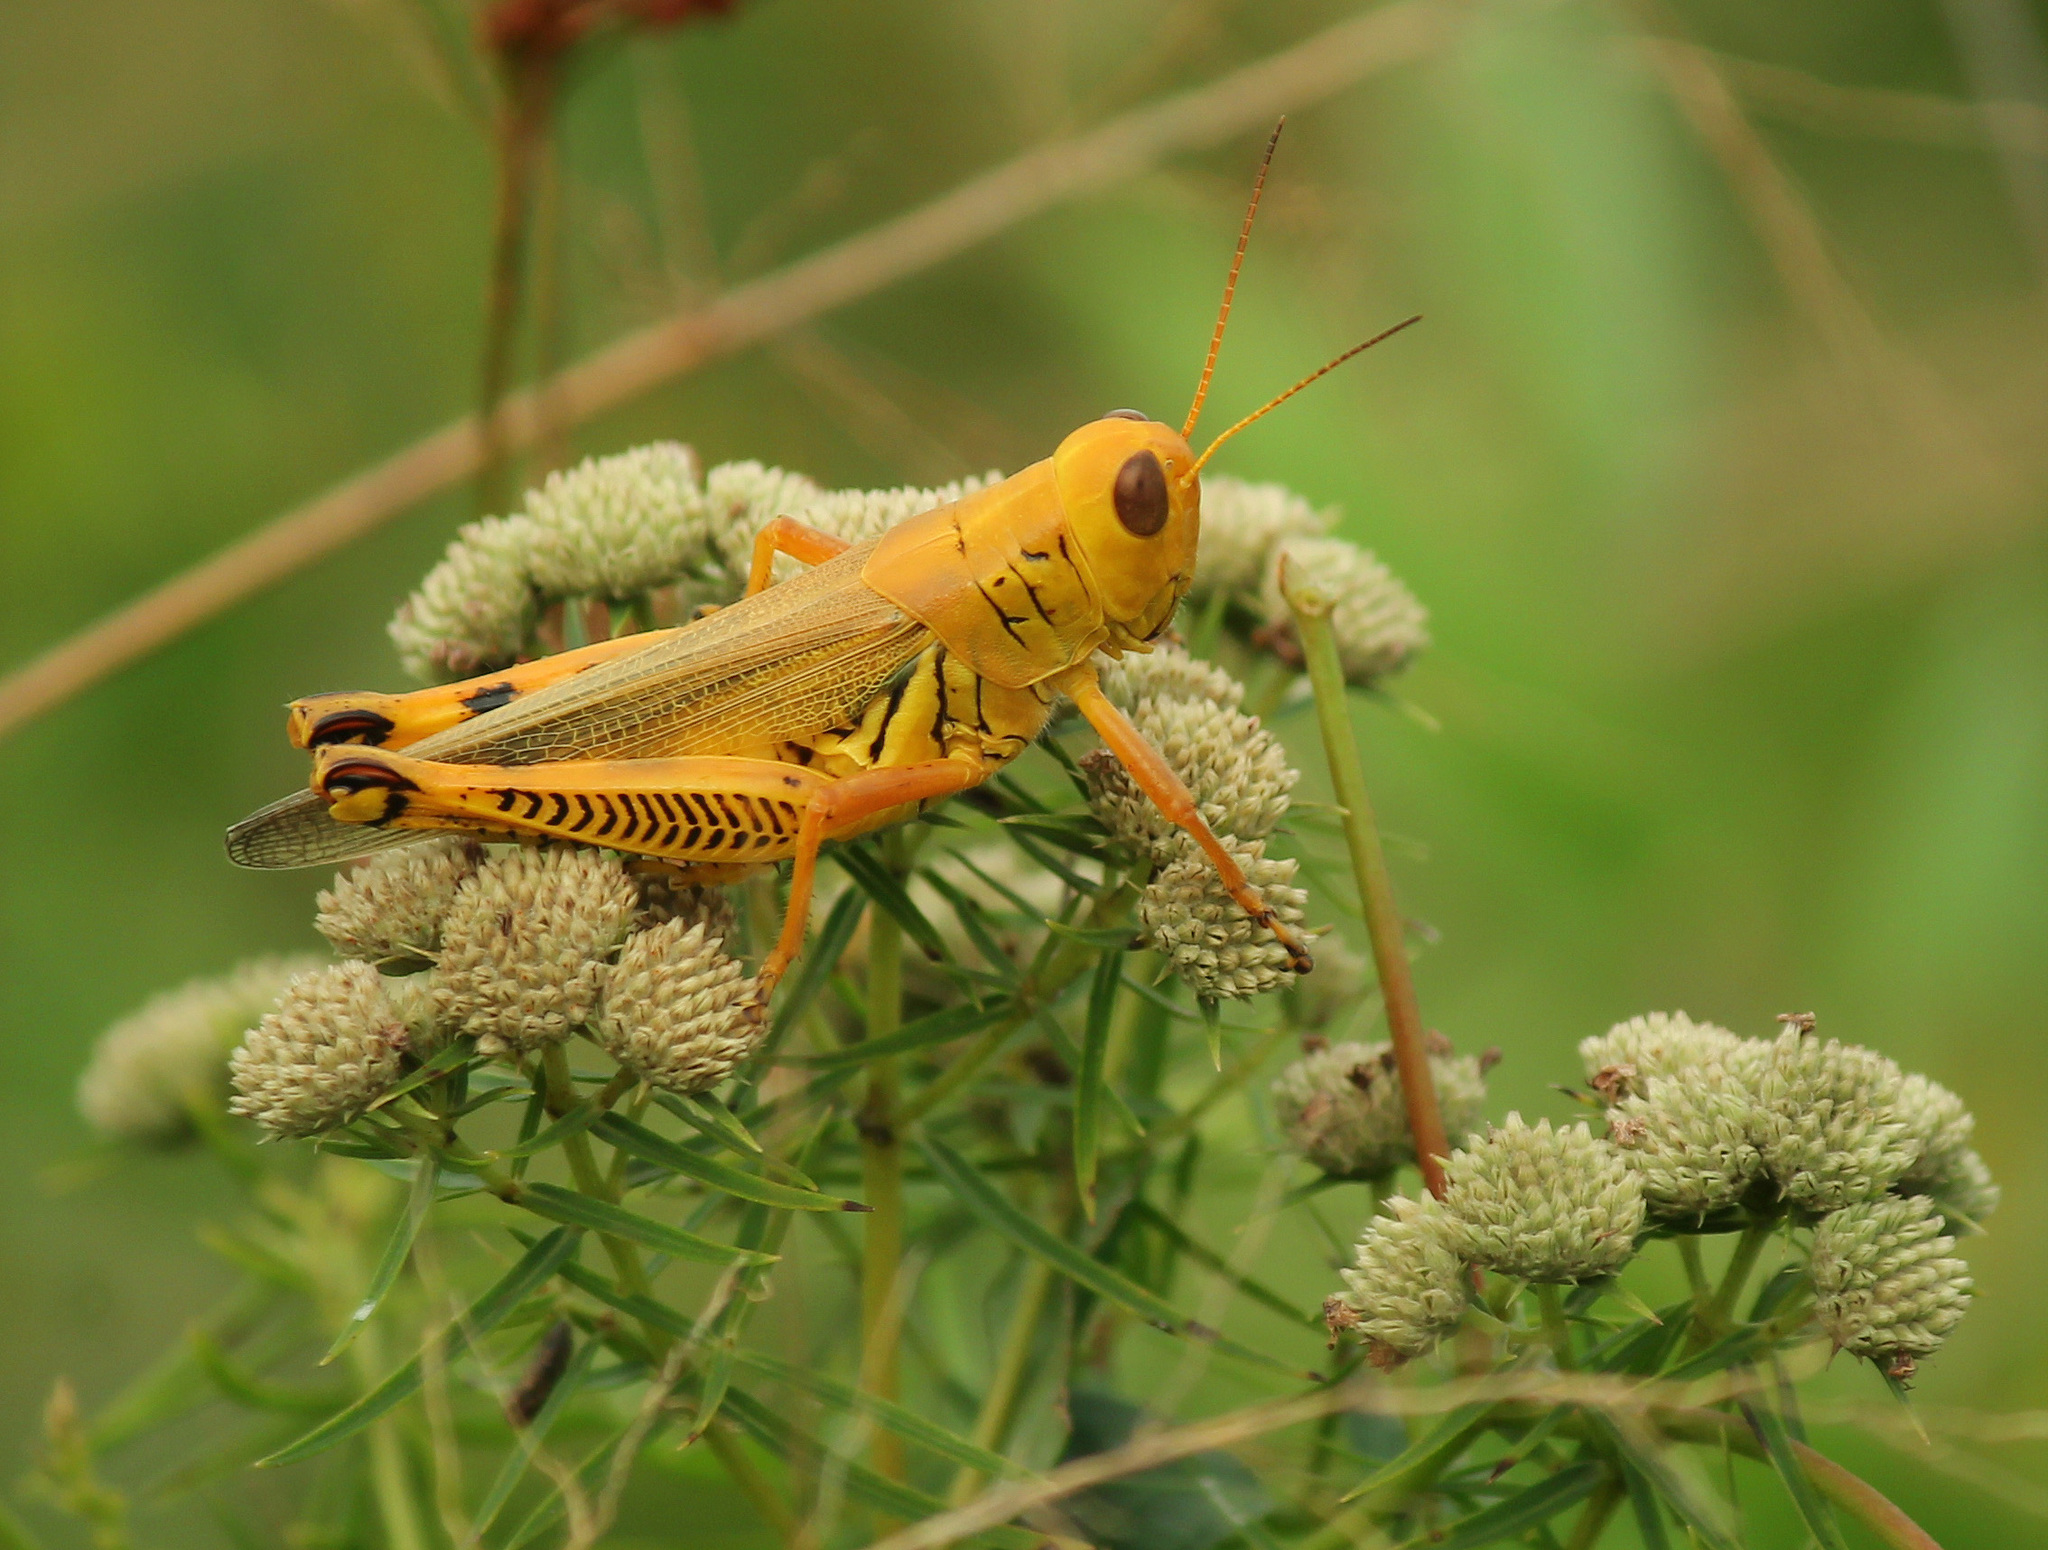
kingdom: Animalia
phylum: Arthropoda
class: Insecta
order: Orthoptera
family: Acrididae
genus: Melanoplus
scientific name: Melanoplus differentialis
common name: Differential grasshopper
